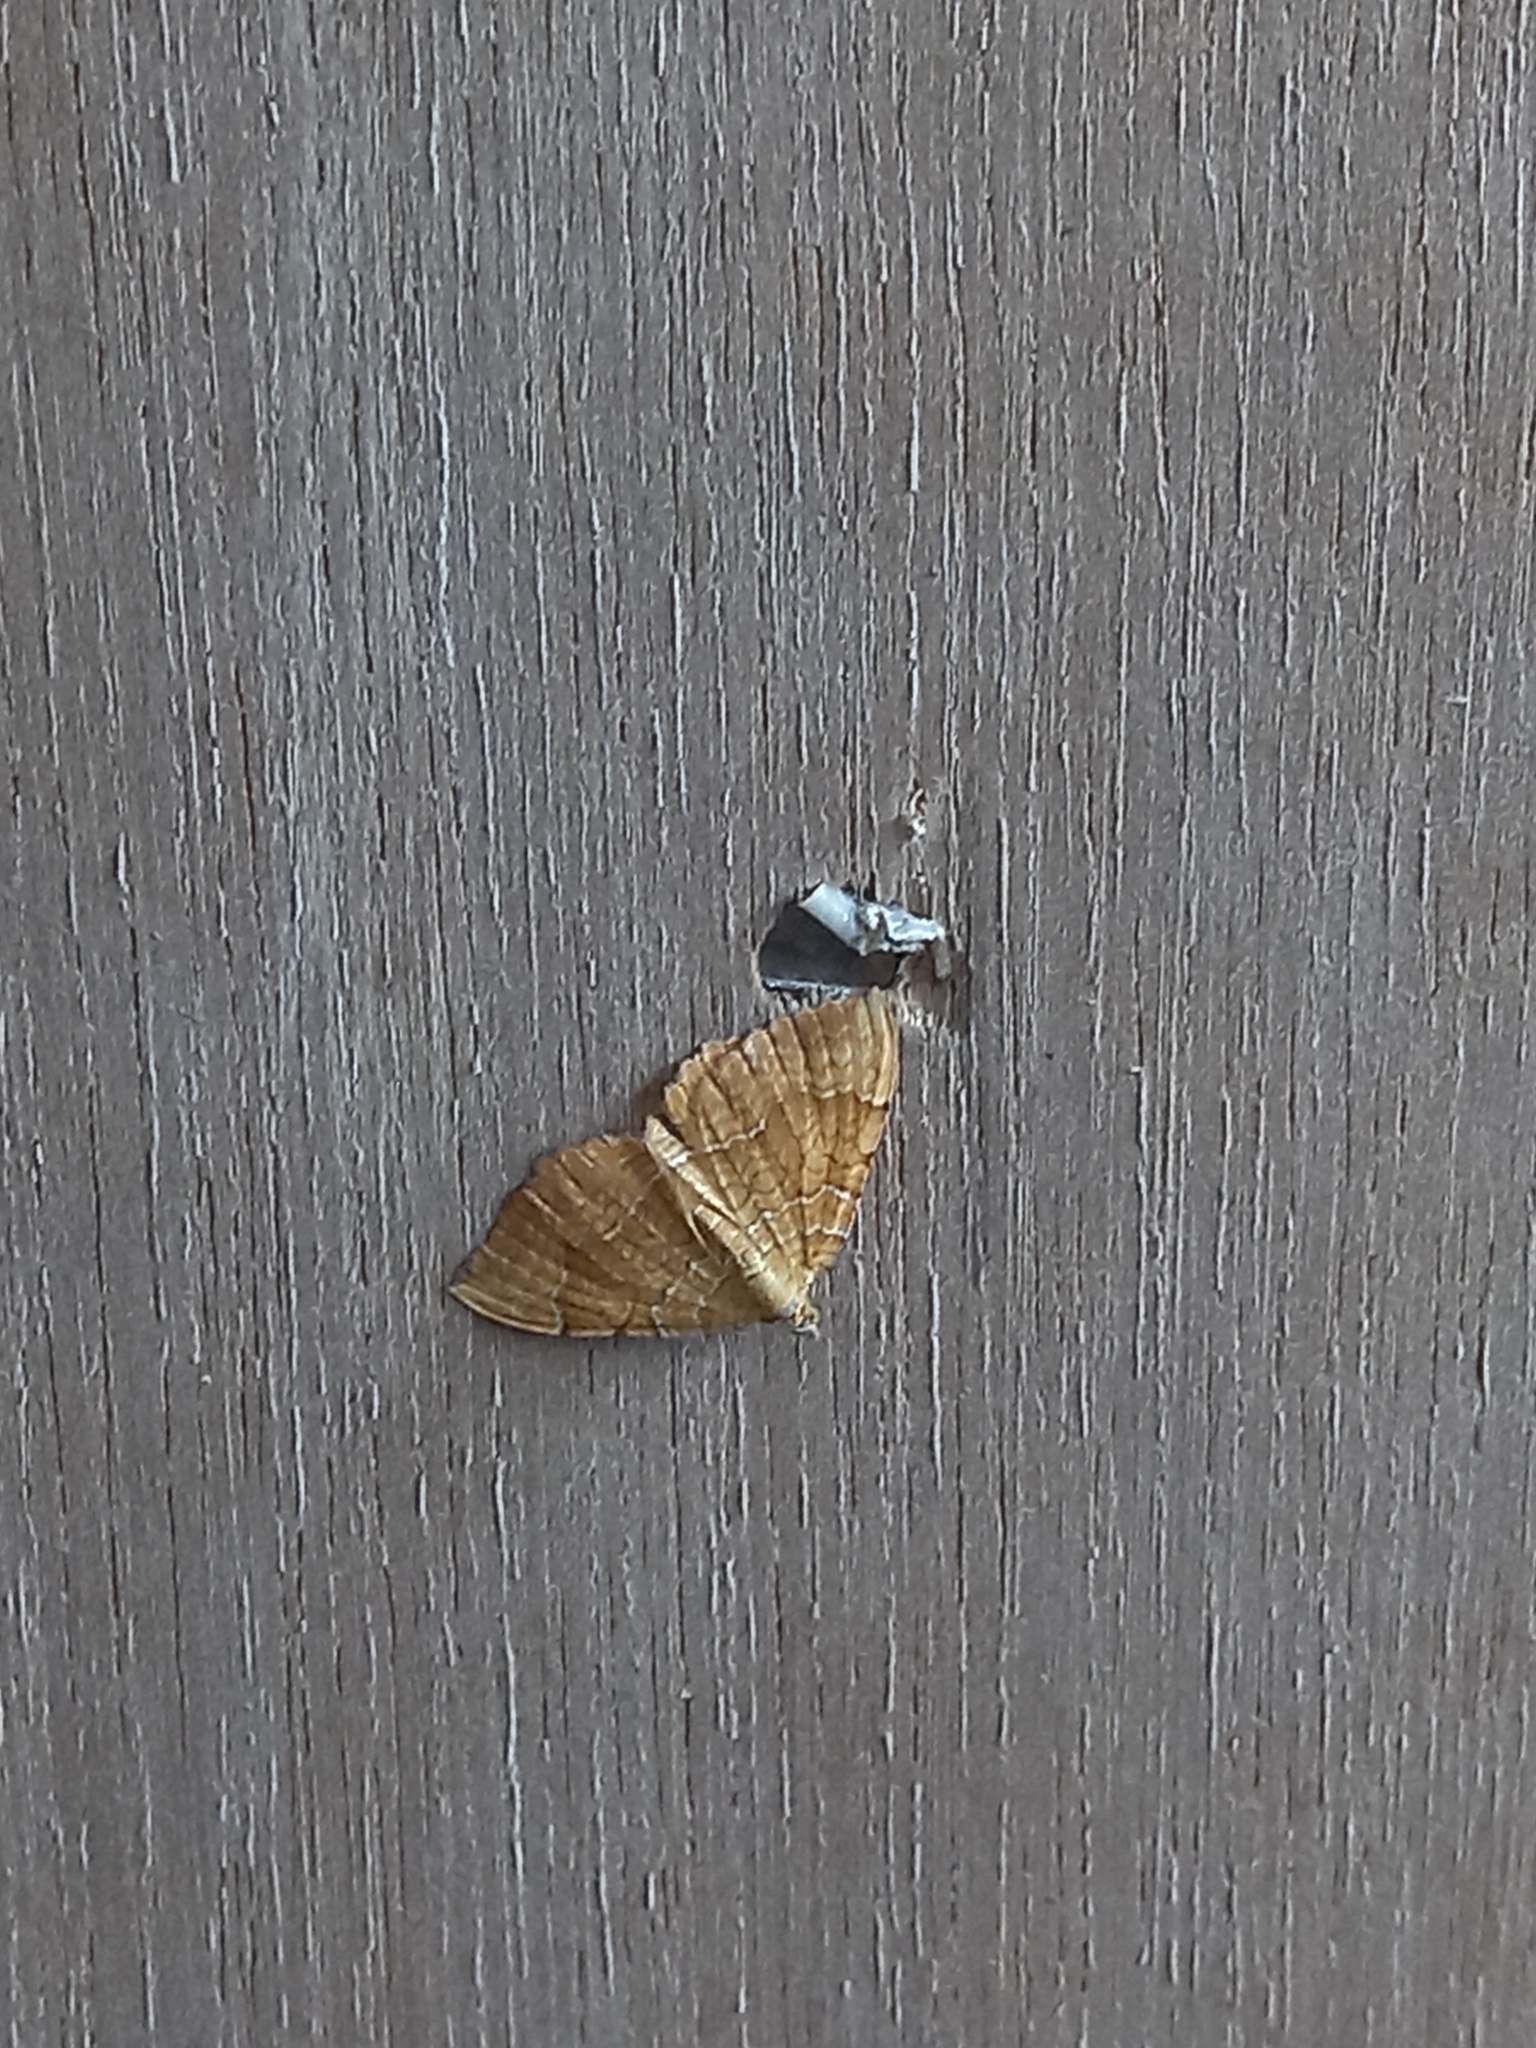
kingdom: Animalia
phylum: Arthropoda
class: Insecta
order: Lepidoptera
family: Geometridae
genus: Camptogramma
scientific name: Camptogramma bilineata
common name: Yellow shell
